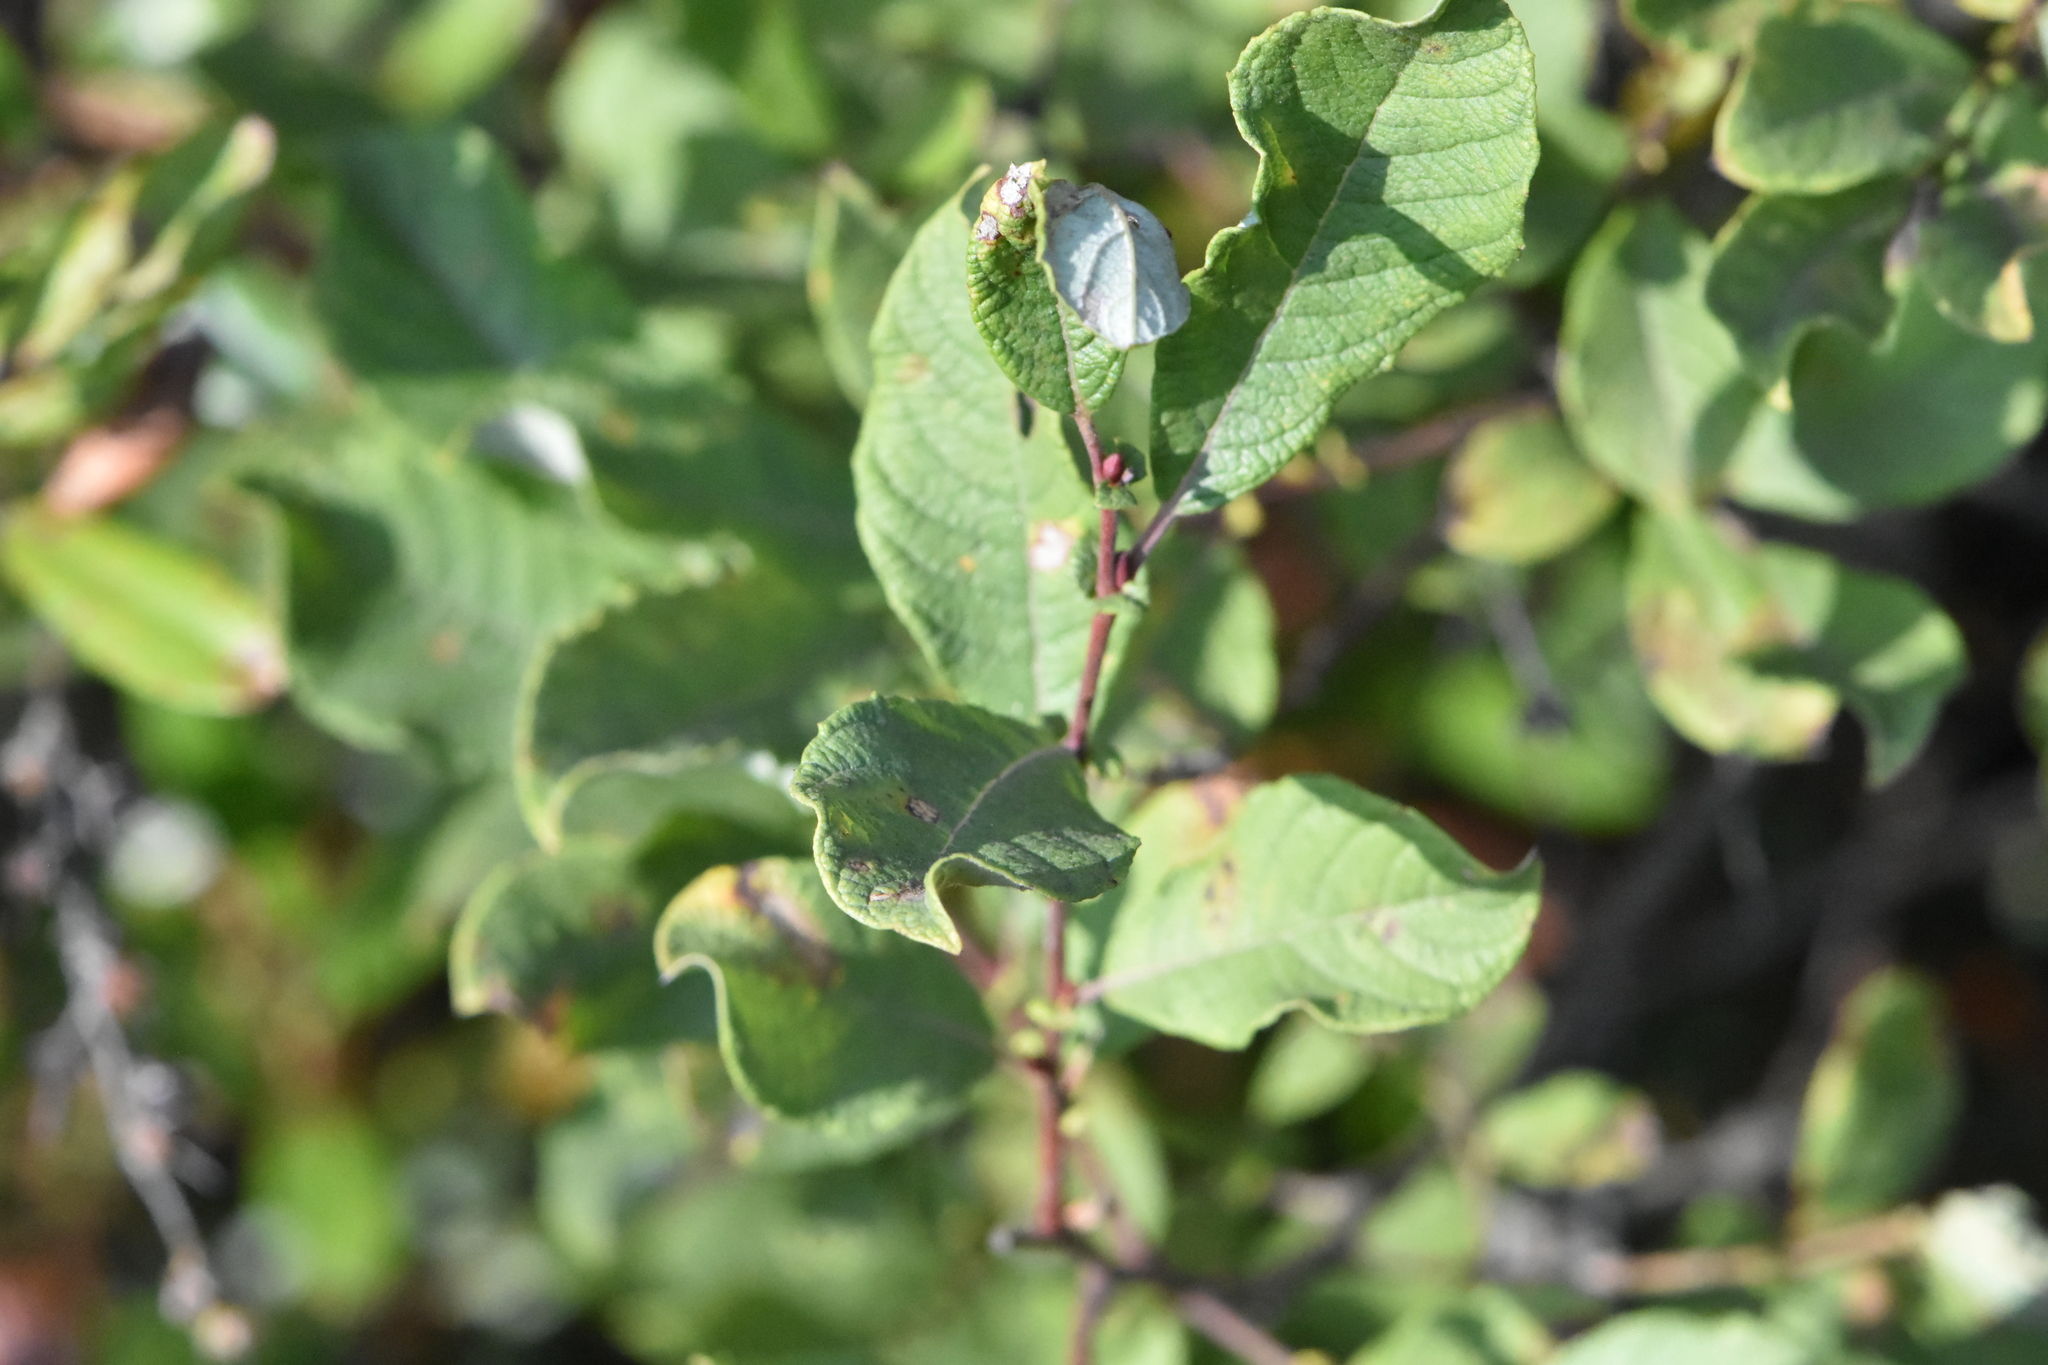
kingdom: Plantae
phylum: Tracheophyta
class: Magnoliopsida
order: Malpighiales
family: Salicaceae
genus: Salix
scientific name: Salix aurita
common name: Eared willow
